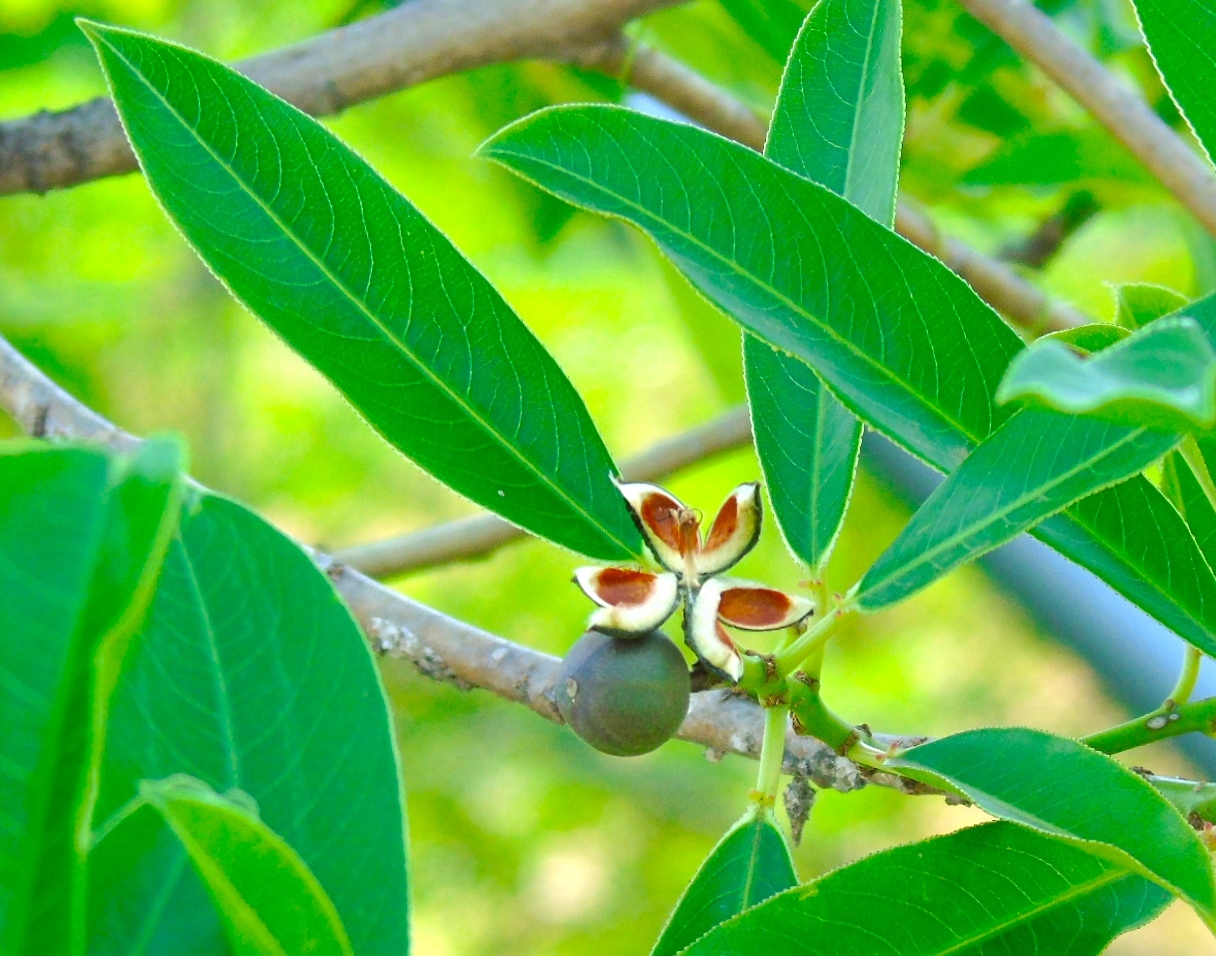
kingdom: Plantae
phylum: Tracheophyta
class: Magnoliopsida
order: Malpighiales
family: Euphorbiaceae
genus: Sapium
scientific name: Sapium lateriflorum
